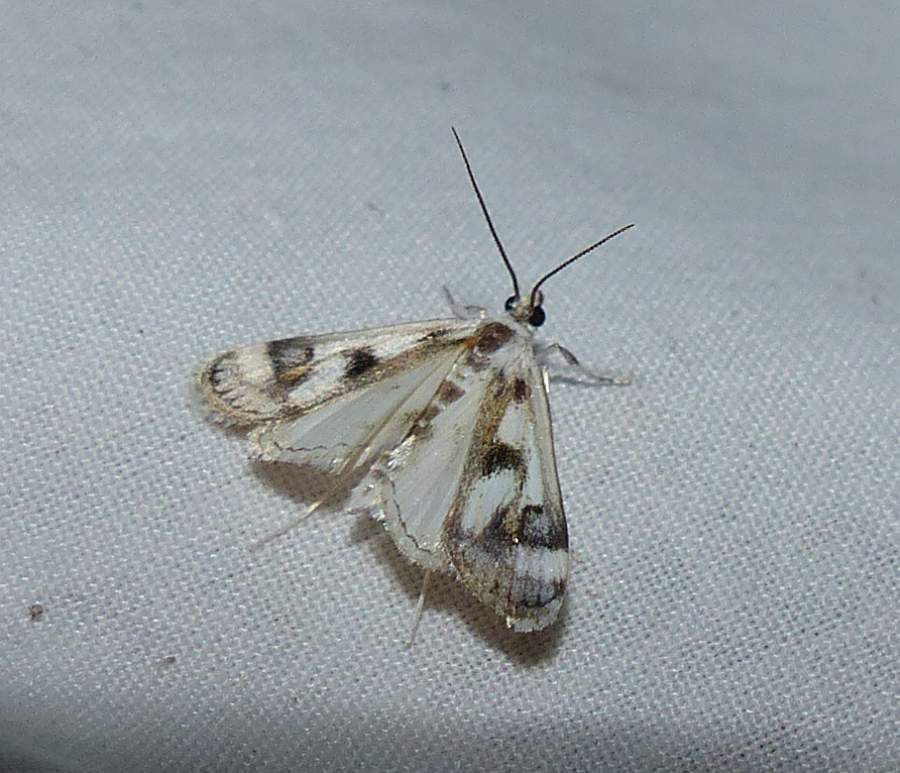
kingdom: Animalia
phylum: Arthropoda
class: Insecta
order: Lepidoptera
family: Crambidae
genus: Parapoynx
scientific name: Parapoynx maculalis
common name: Polymorphic pondweed moth
